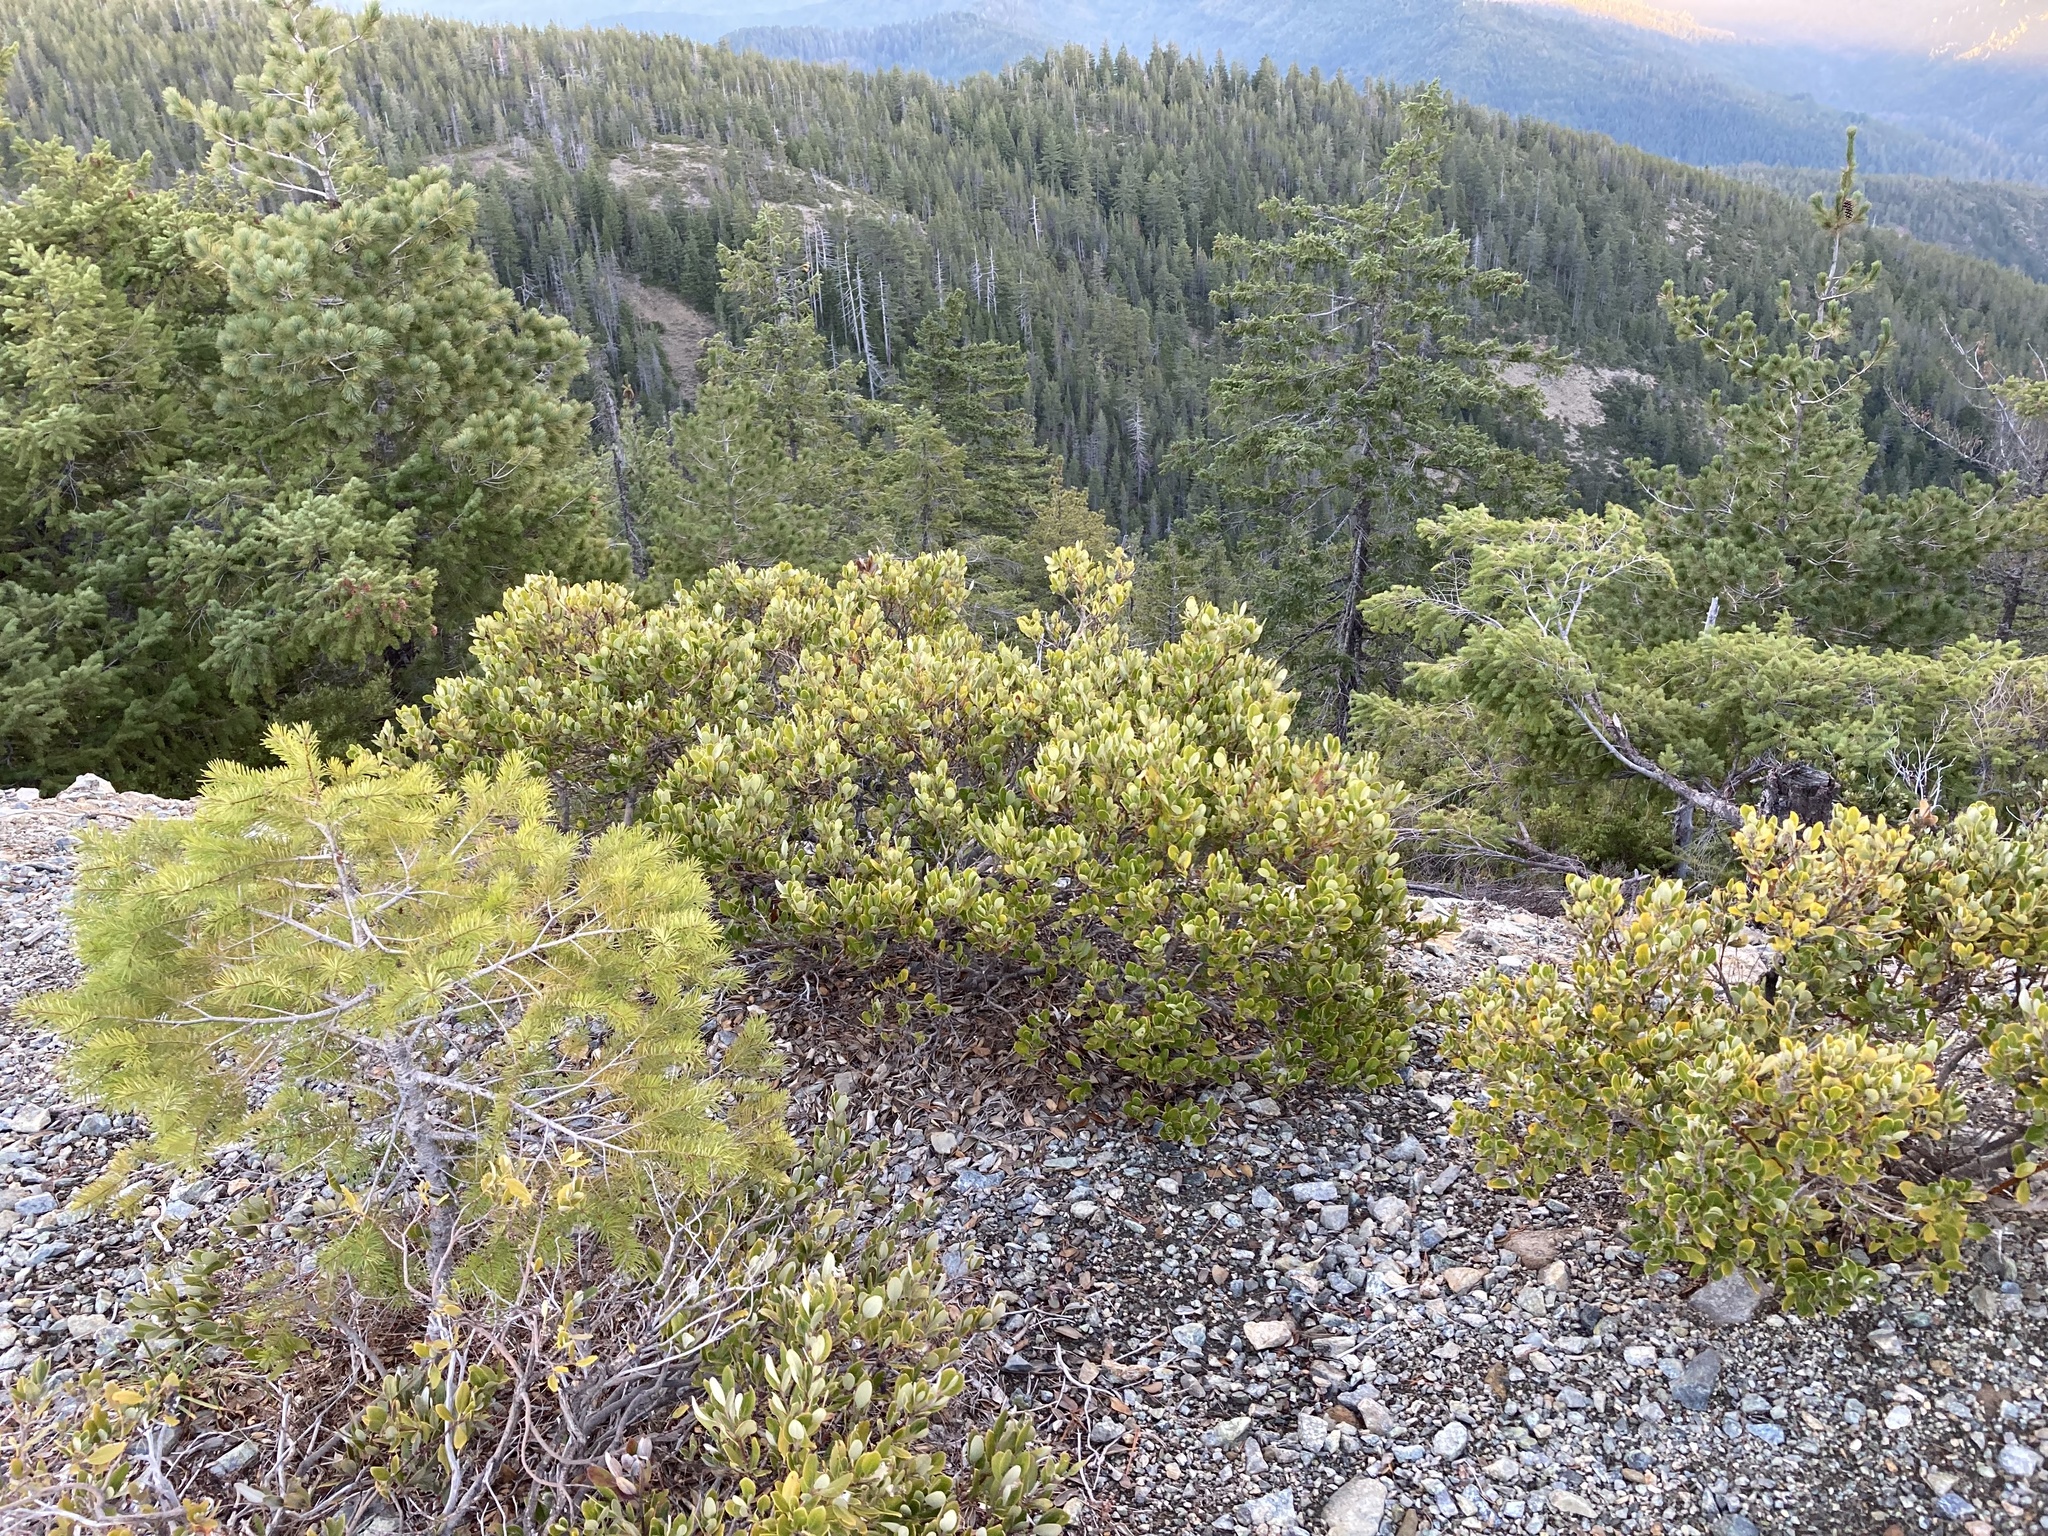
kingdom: Plantae
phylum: Tracheophyta
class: Magnoliopsida
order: Garryales
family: Garryaceae
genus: Garrya
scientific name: Garrya buxifolia
